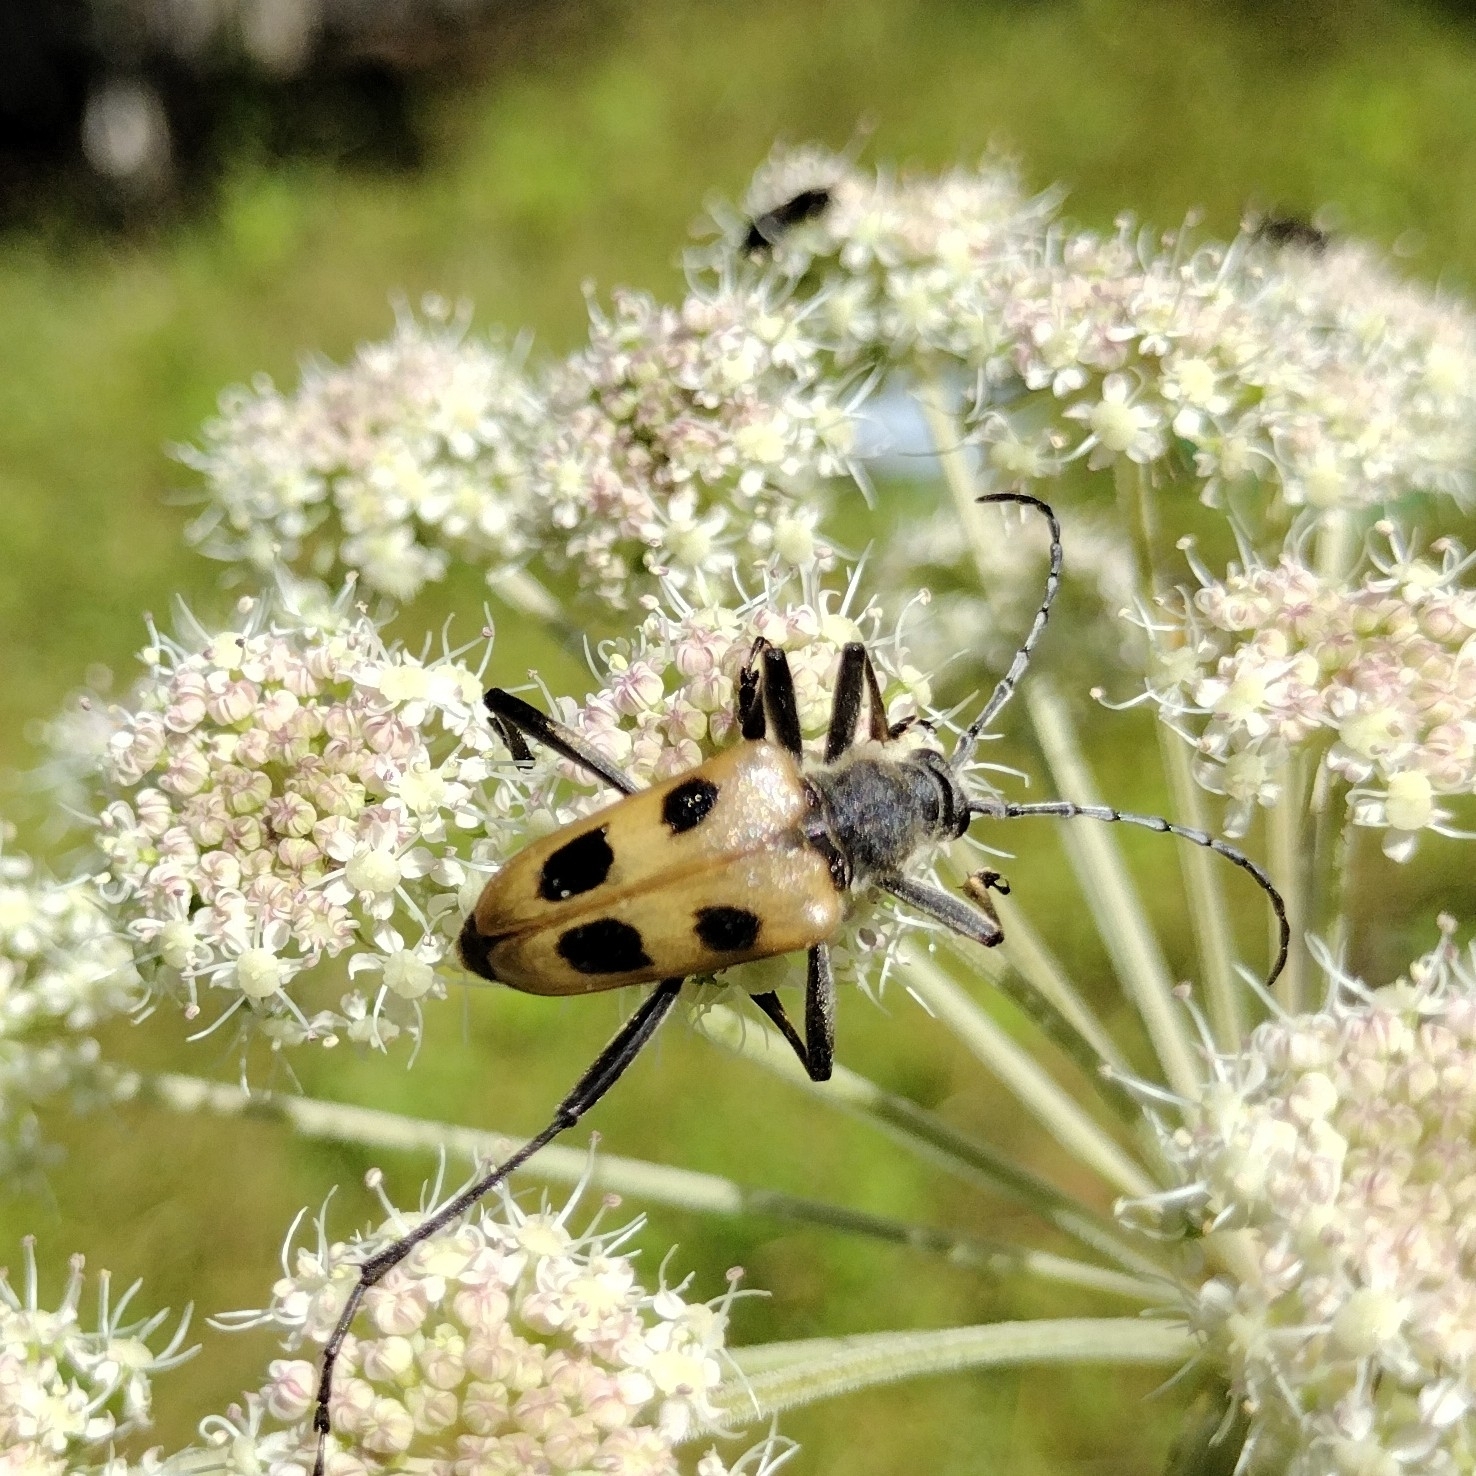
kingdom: Animalia
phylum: Arthropoda
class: Insecta
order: Coleoptera
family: Cerambycidae
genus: Pachyta
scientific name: Pachyta quadrimaculata
